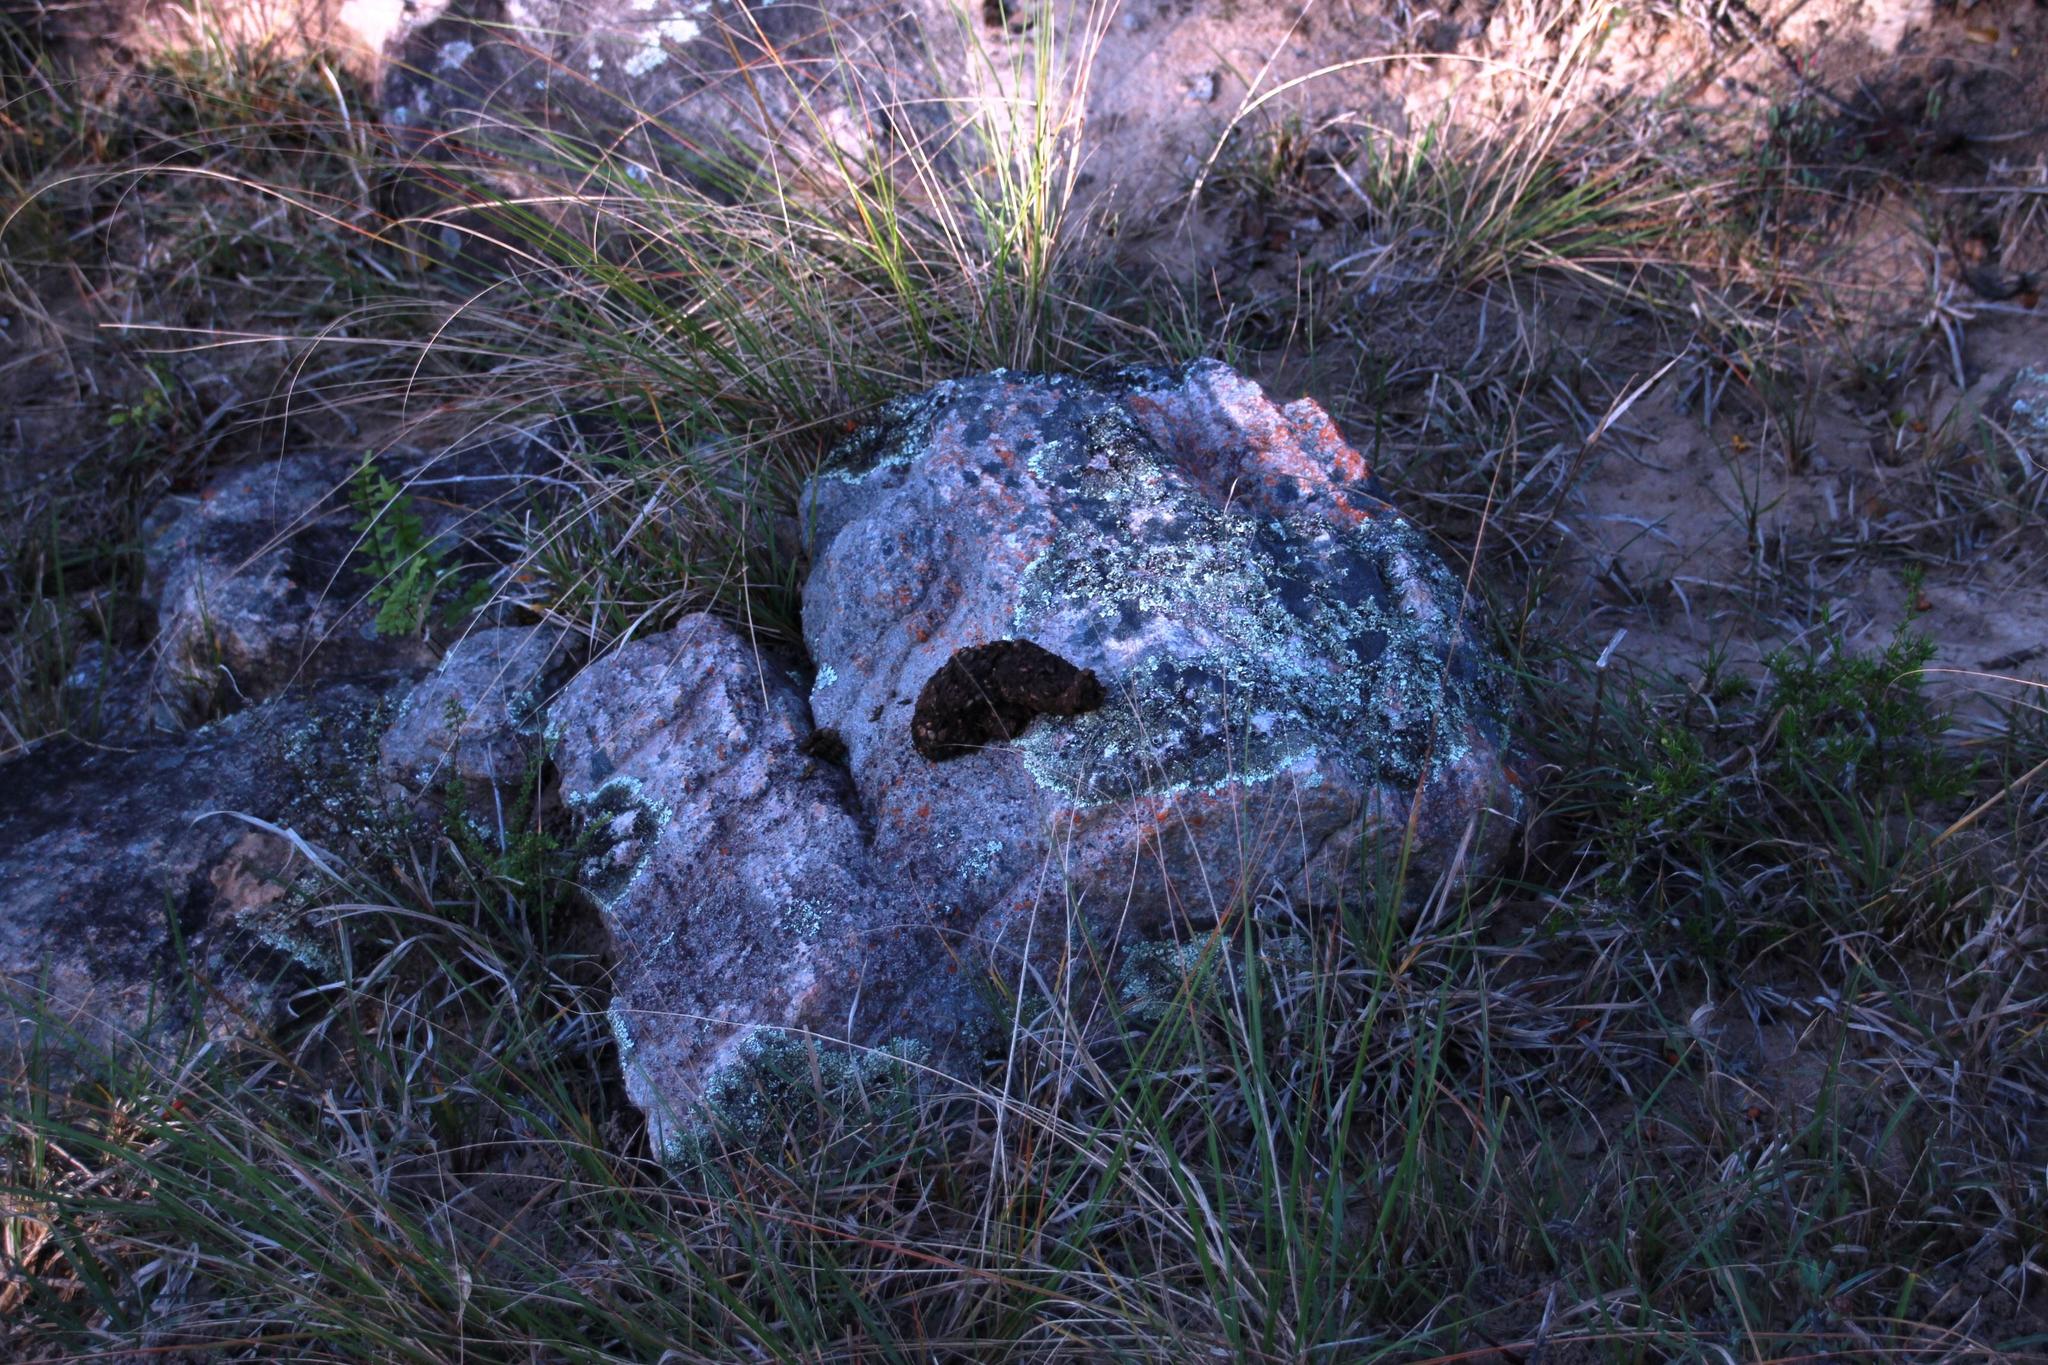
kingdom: Animalia
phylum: Chordata
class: Mammalia
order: Primates
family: Cercopithecidae
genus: Papio
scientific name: Papio ursinus
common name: Chacma baboon
